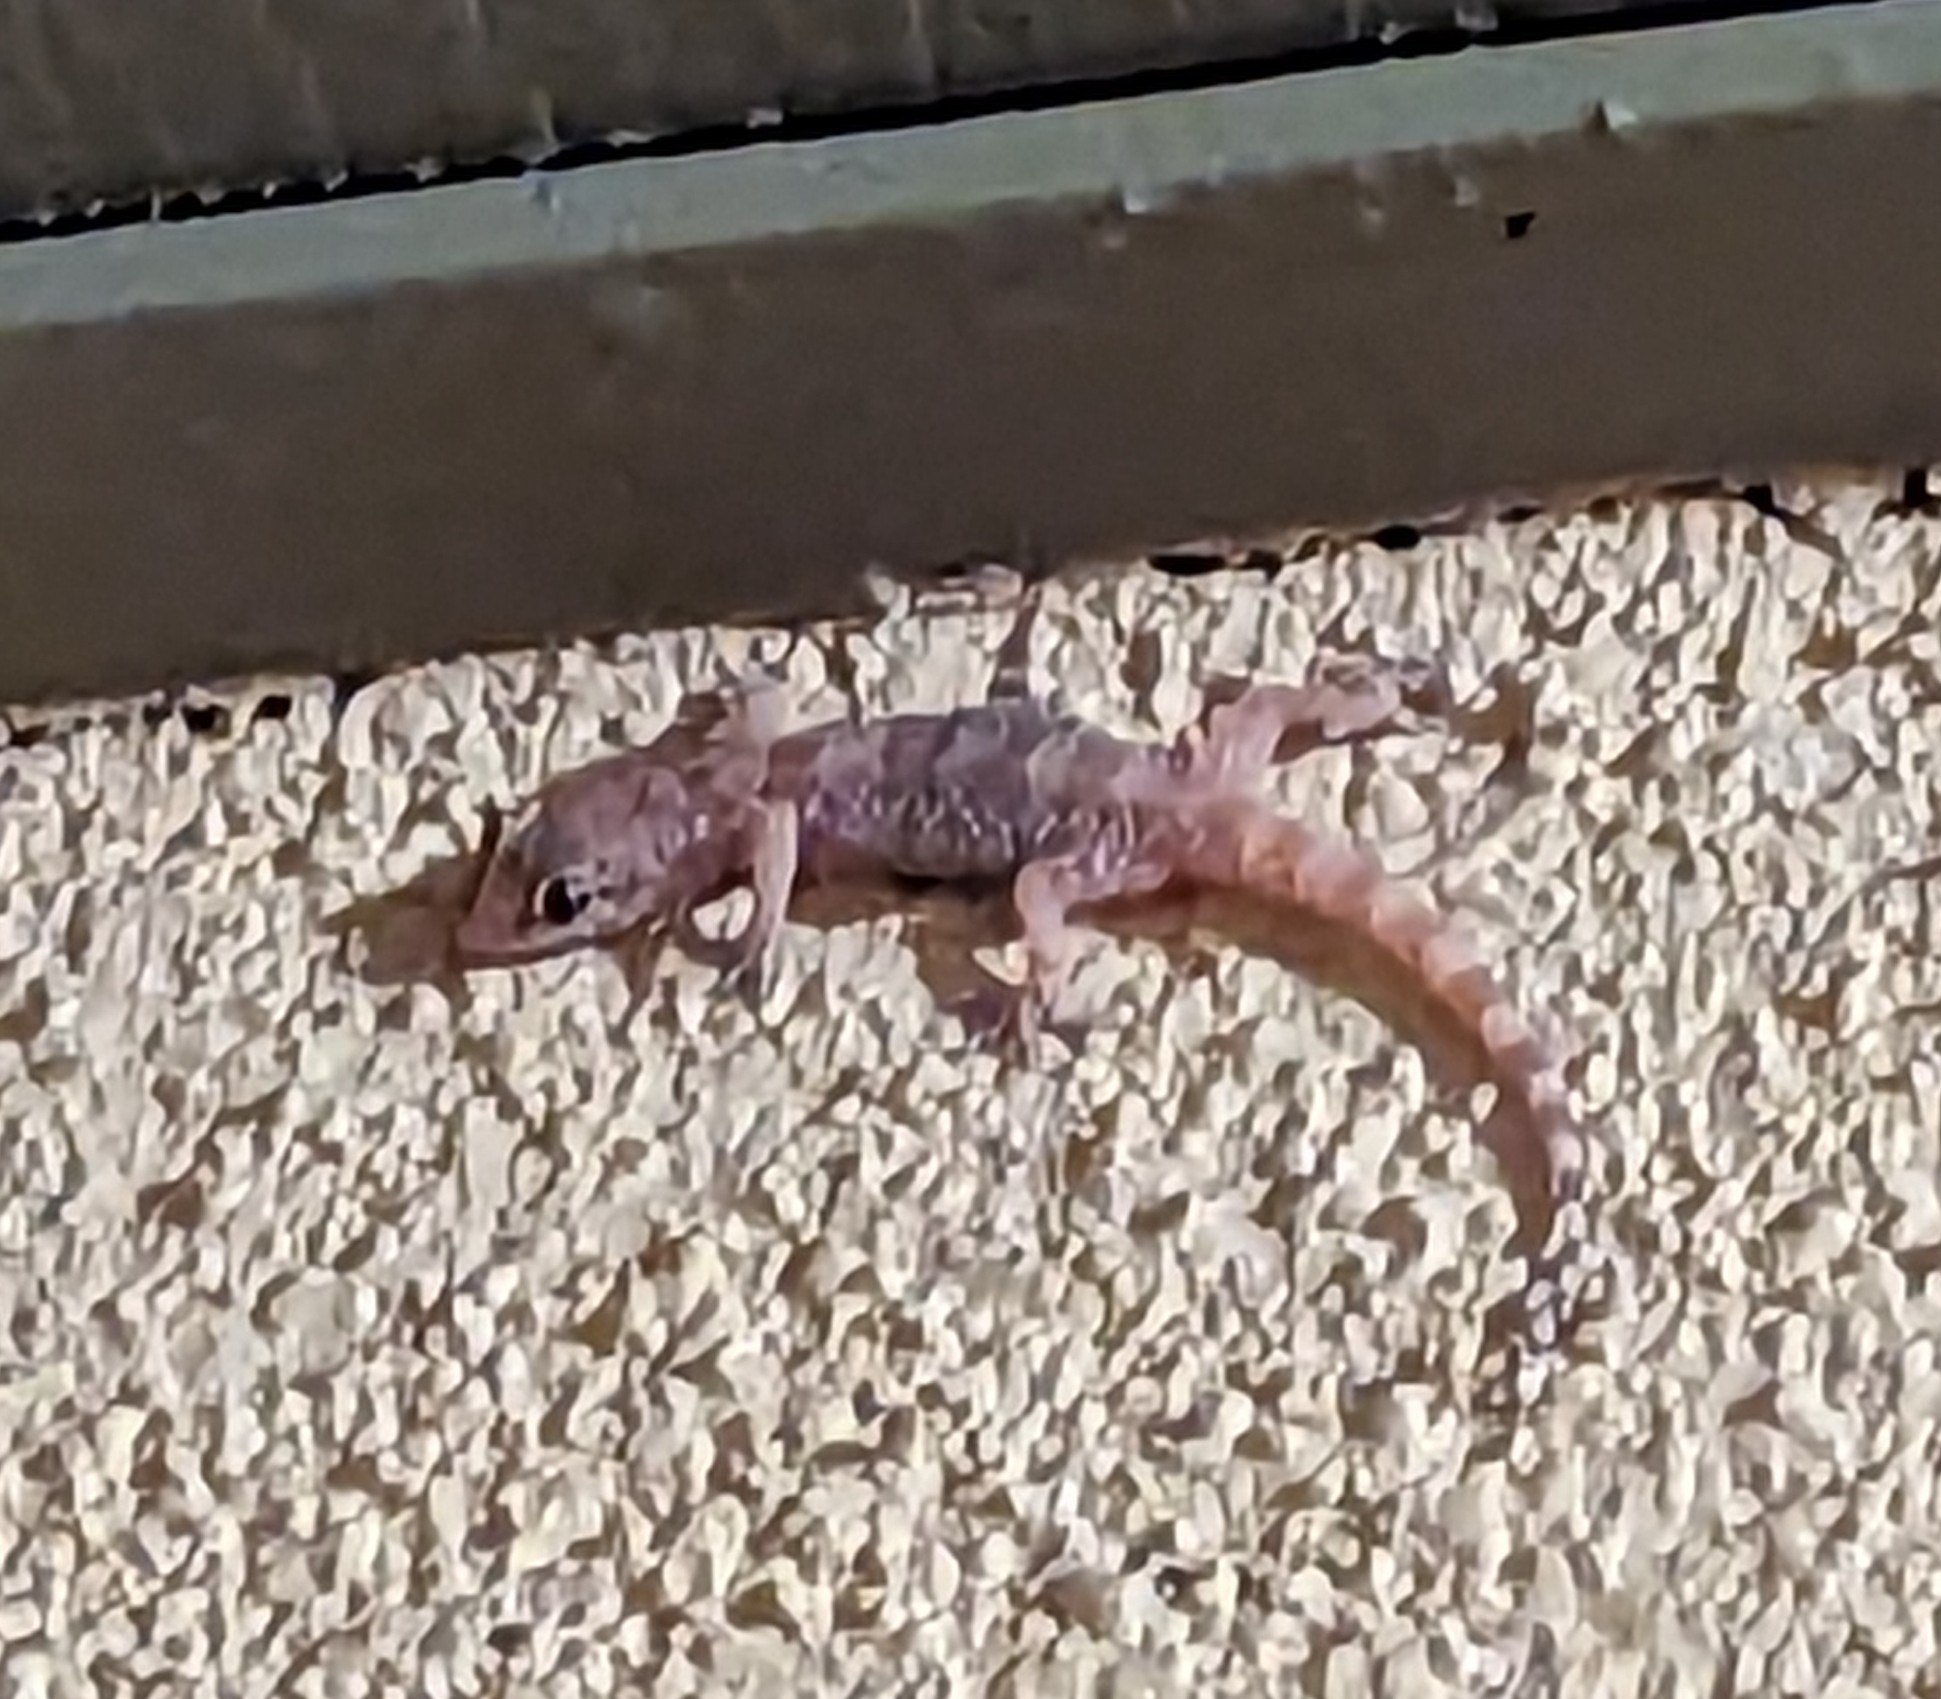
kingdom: Animalia
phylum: Chordata
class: Squamata
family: Gekkonidae
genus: Hemidactylus
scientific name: Hemidactylus turcicus
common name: Turkish gecko
